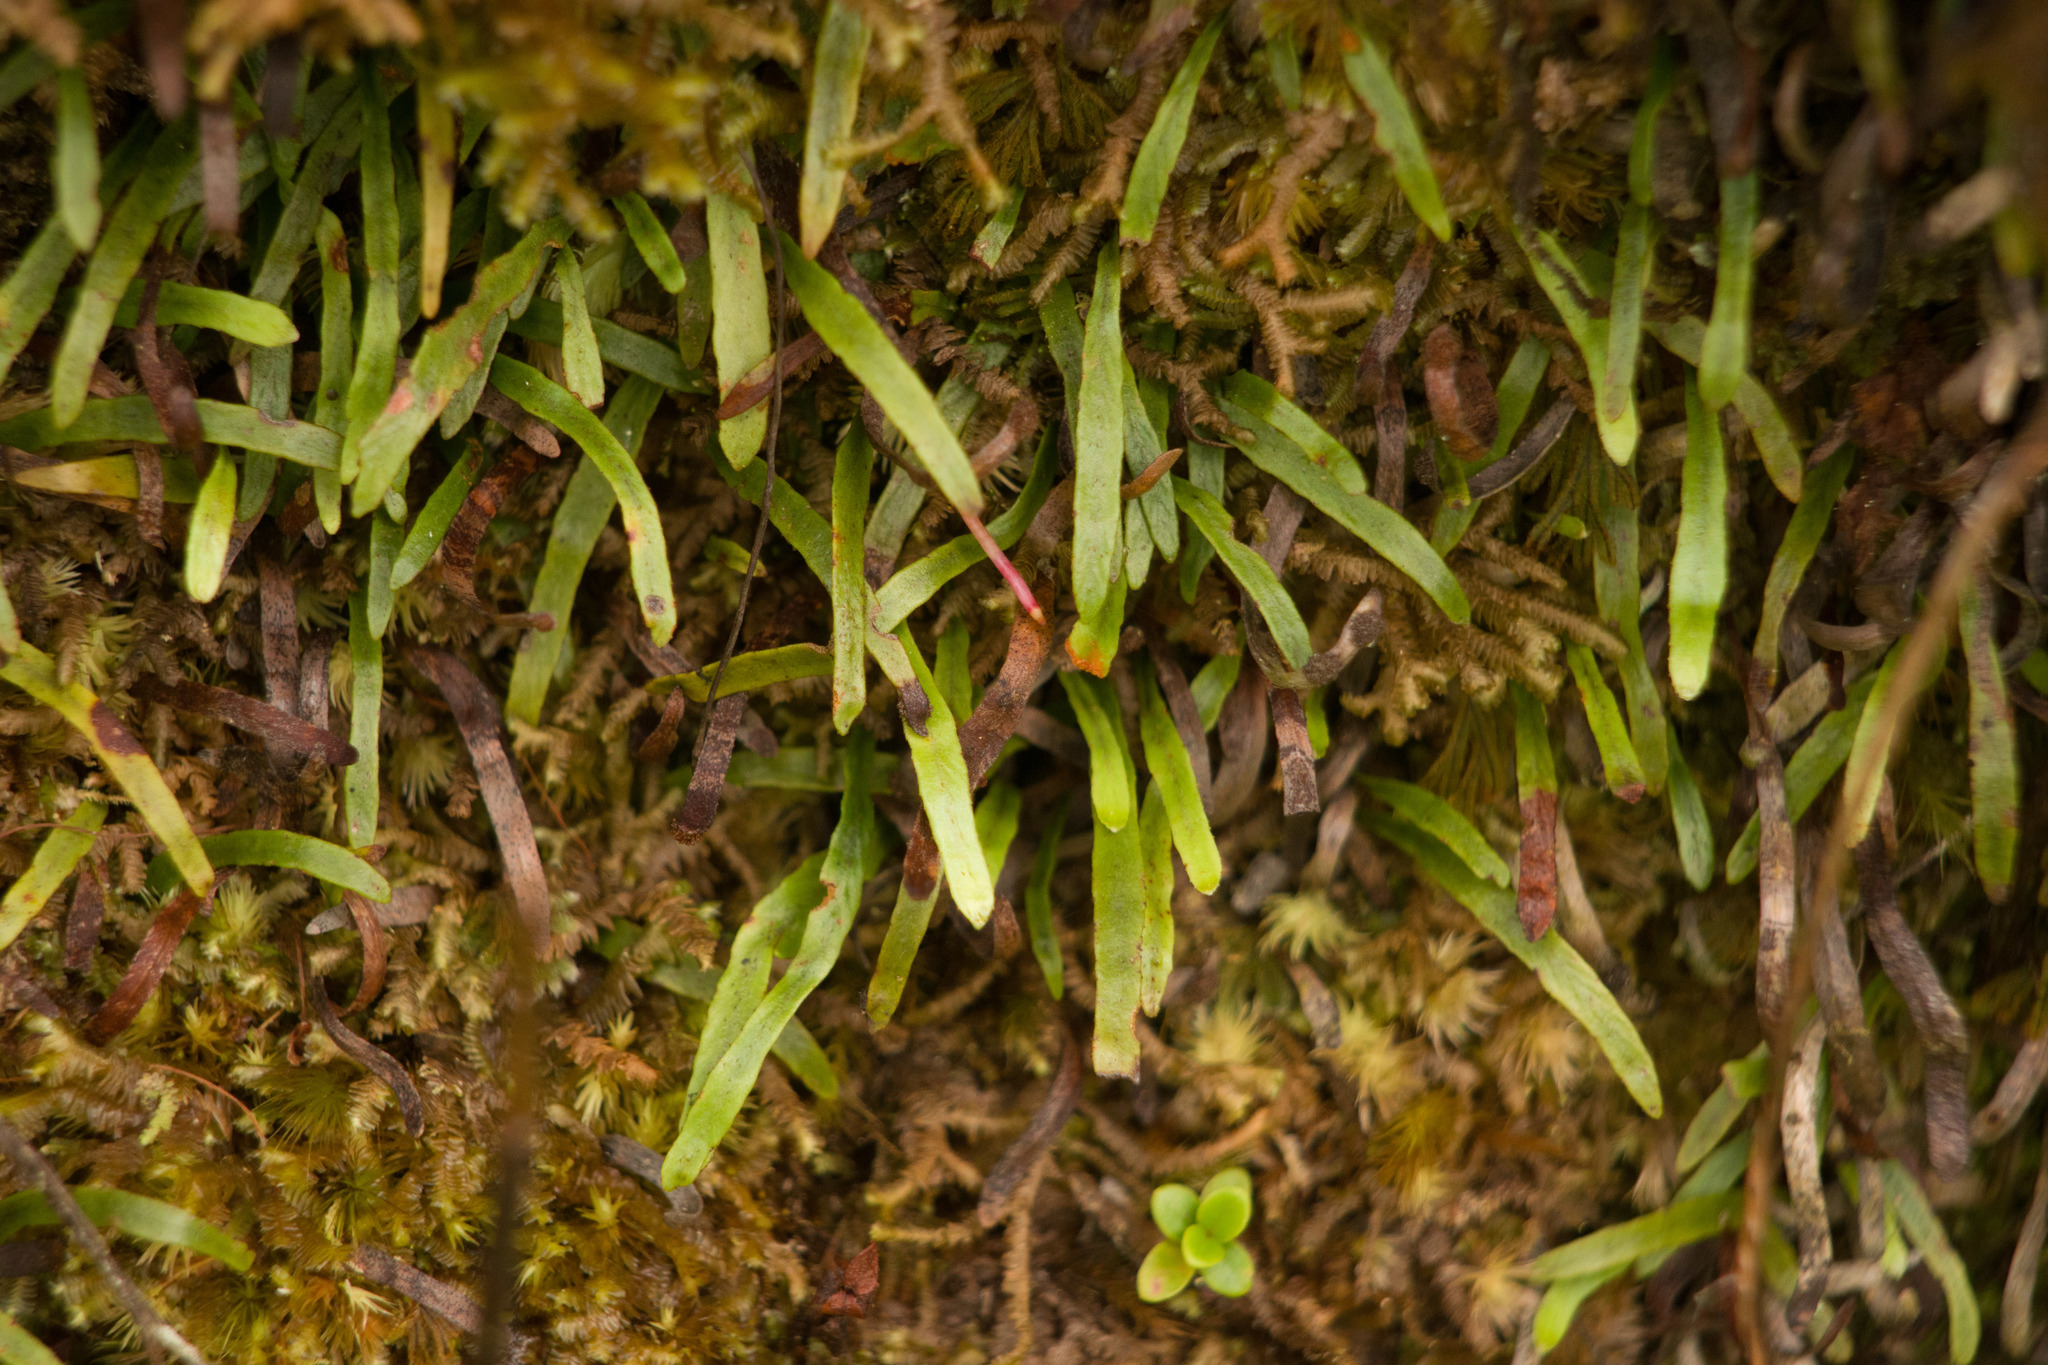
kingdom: Plantae
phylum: Tracheophyta
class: Polypodiopsida
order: Polypodiales
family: Polypodiaceae
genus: Adenophorus
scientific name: Adenophorus tenellus
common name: Kolokolo
